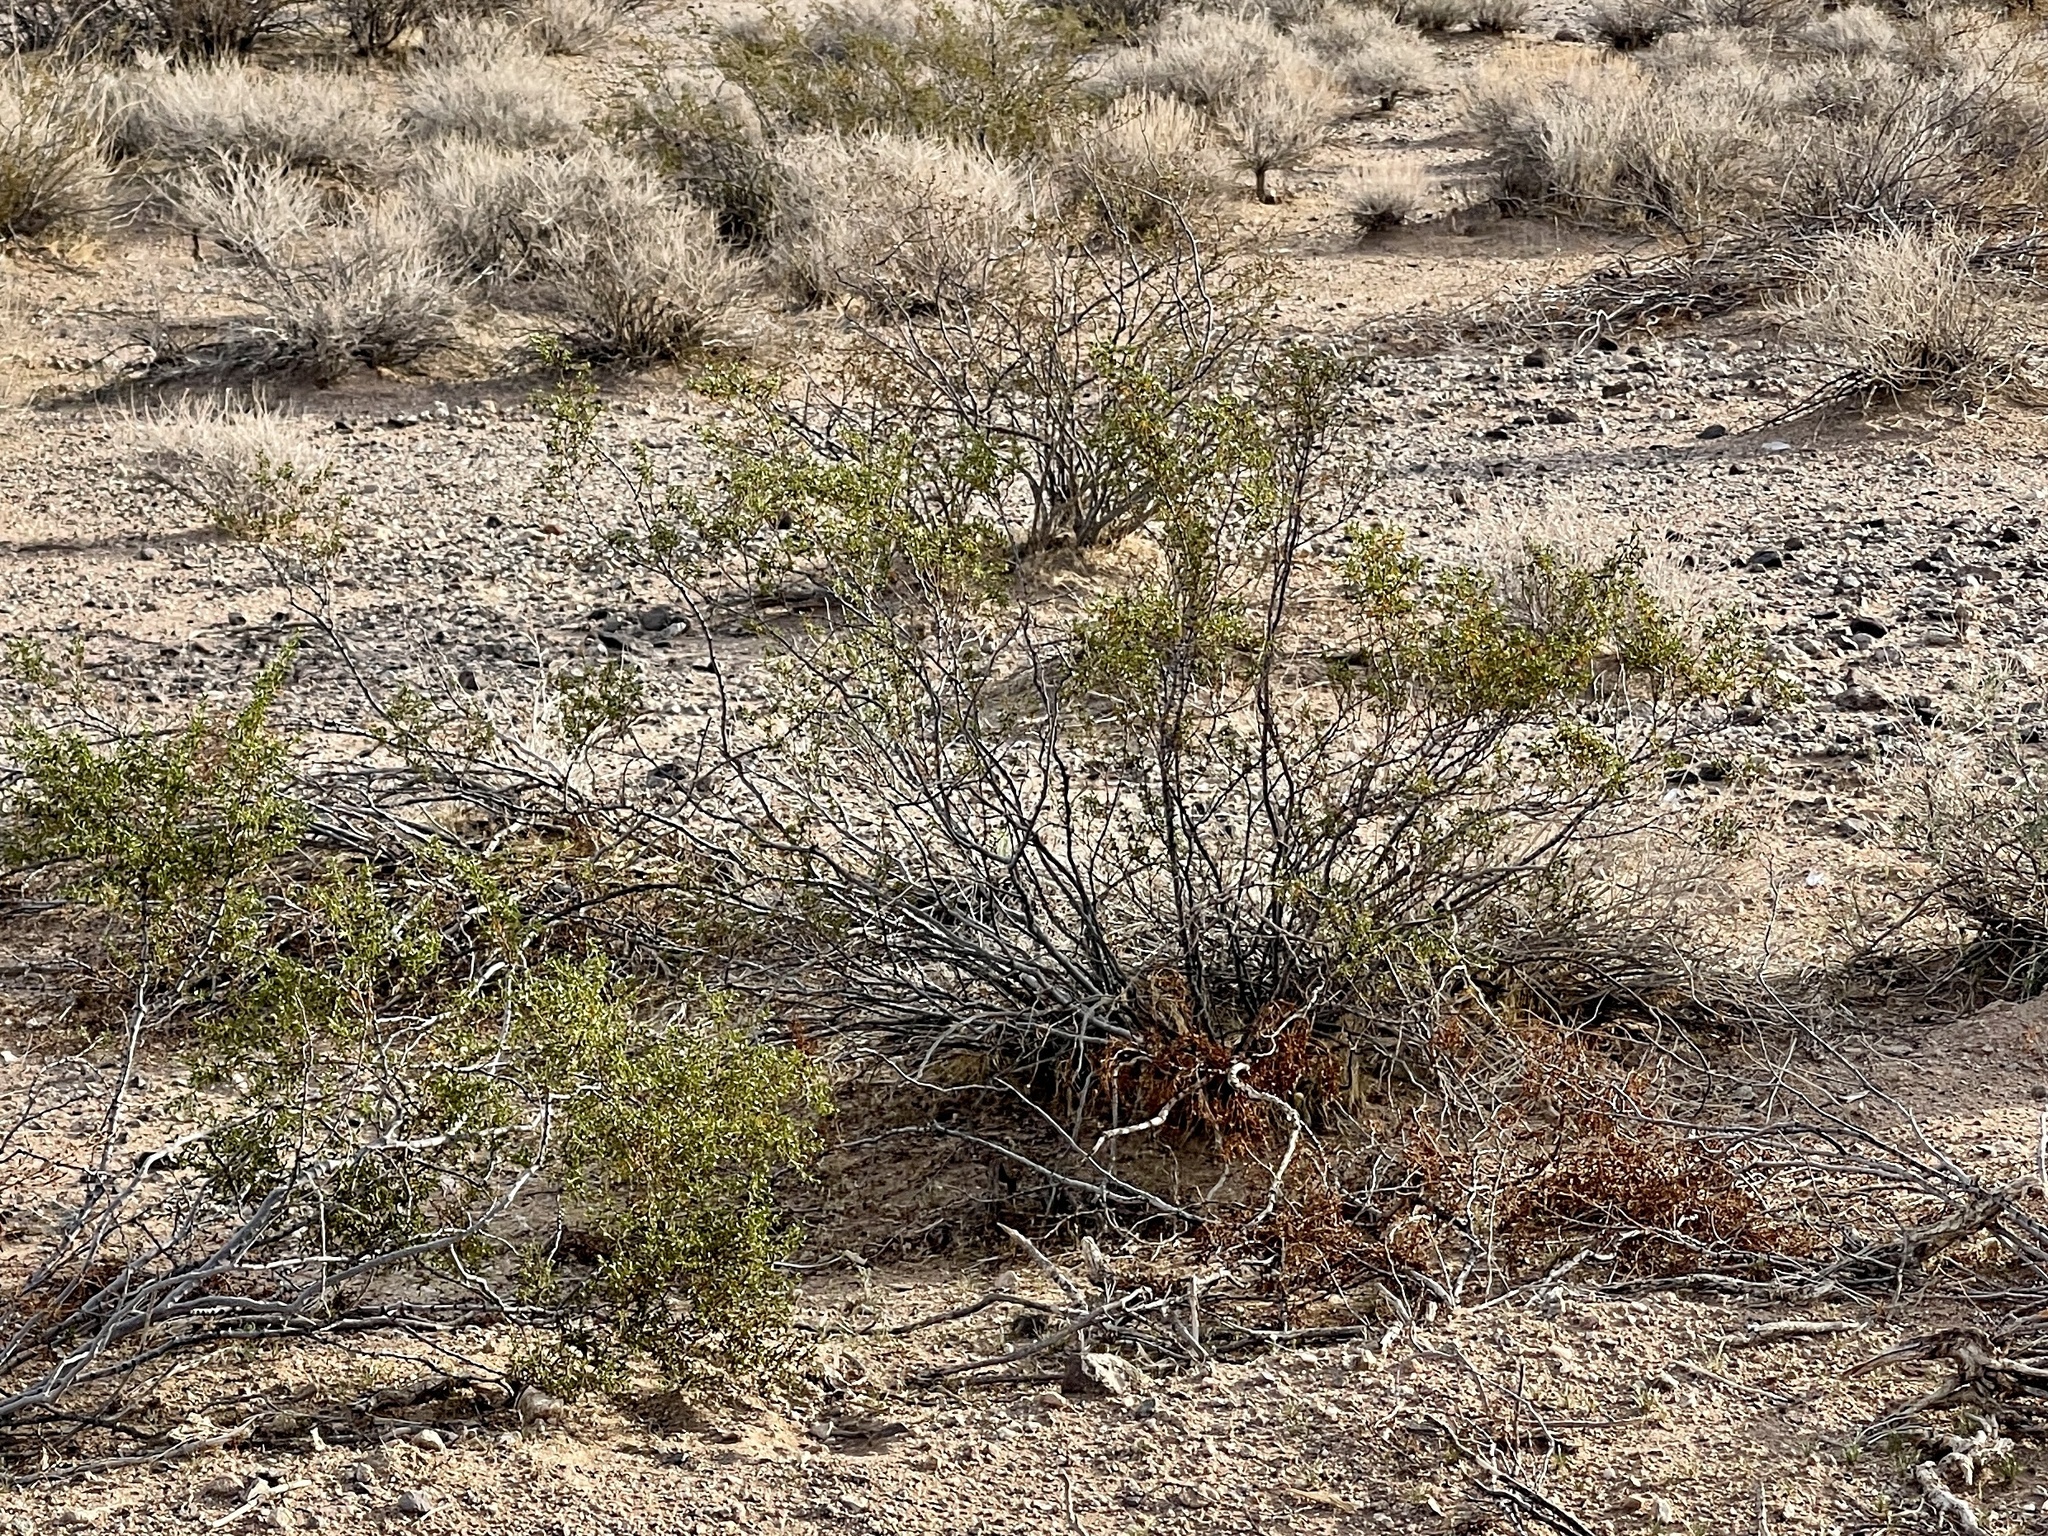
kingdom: Plantae
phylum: Tracheophyta
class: Magnoliopsida
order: Zygophyllales
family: Zygophyllaceae
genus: Larrea
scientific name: Larrea tridentata
